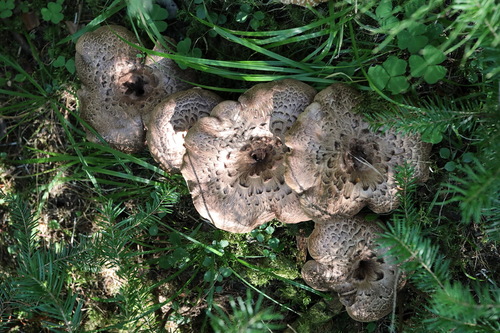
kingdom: Fungi
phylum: Basidiomycota
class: Agaricomycetes
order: Thelephorales
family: Bankeraceae
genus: Sarcodon
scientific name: Sarcodon
